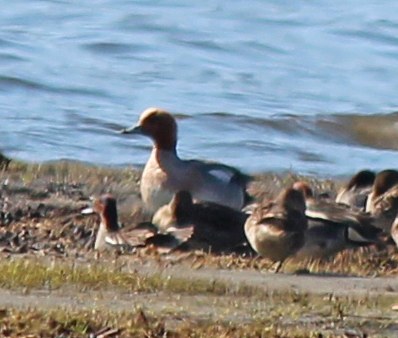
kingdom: Animalia
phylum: Chordata
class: Aves
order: Anseriformes
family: Anatidae
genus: Mareca
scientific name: Mareca penelope
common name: Eurasian wigeon
